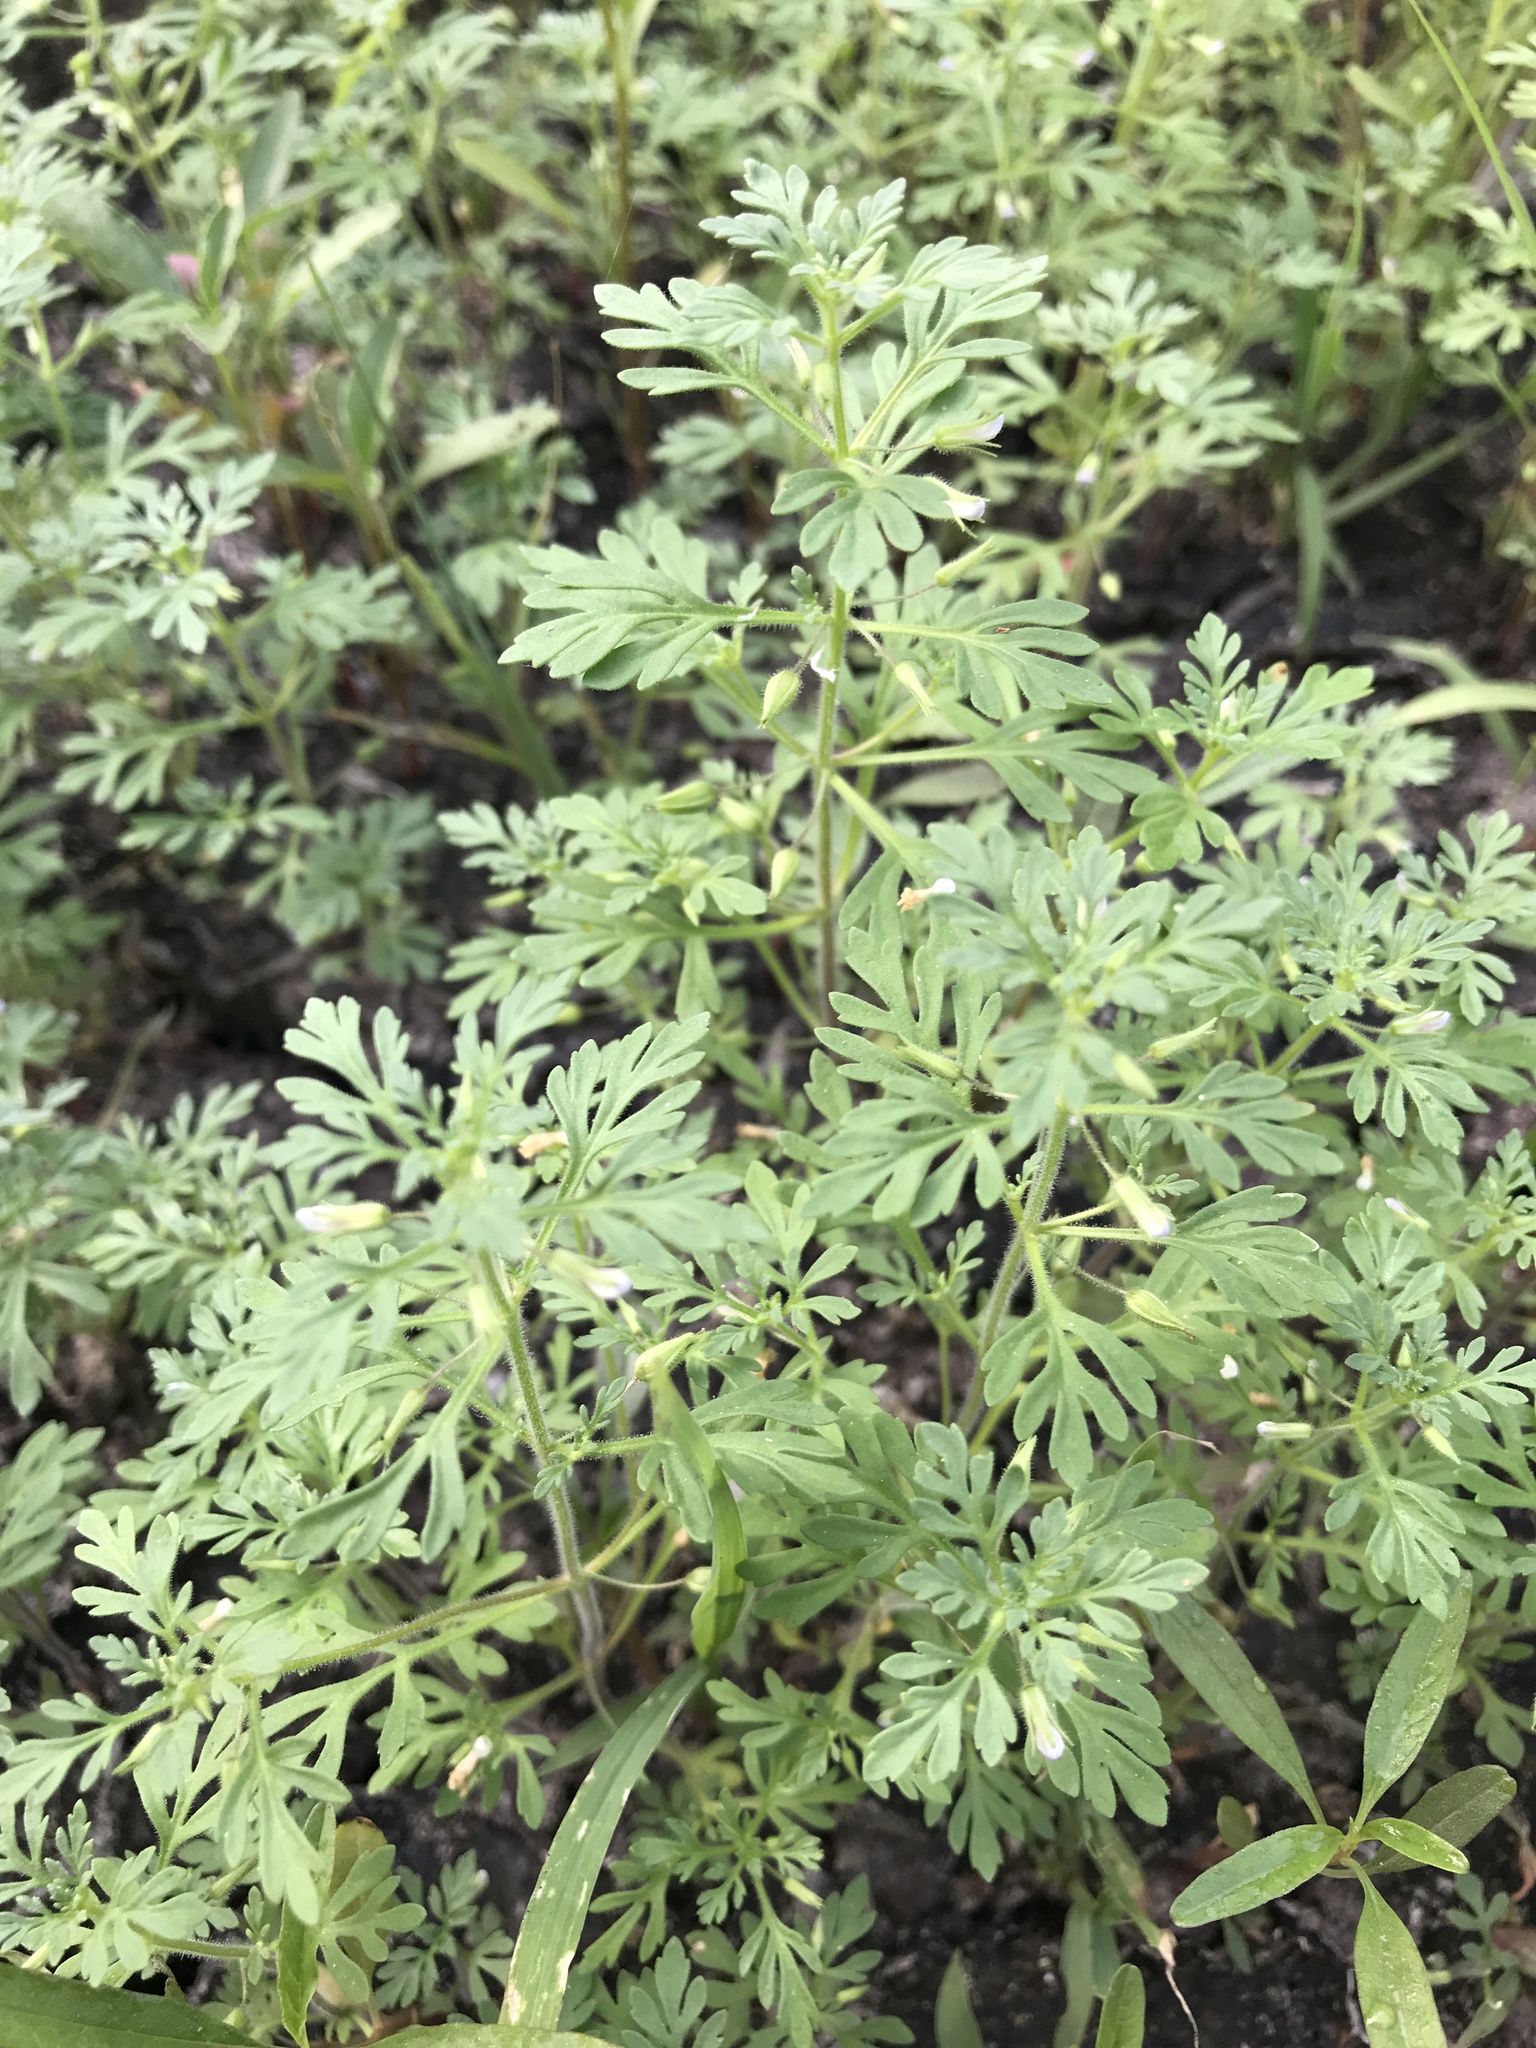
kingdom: Plantae
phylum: Tracheophyta
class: Magnoliopsida
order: Lamiales
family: Plantaginaceae
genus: Leucospora
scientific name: Leucospora multifida
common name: Narrow-leaf paleseed
